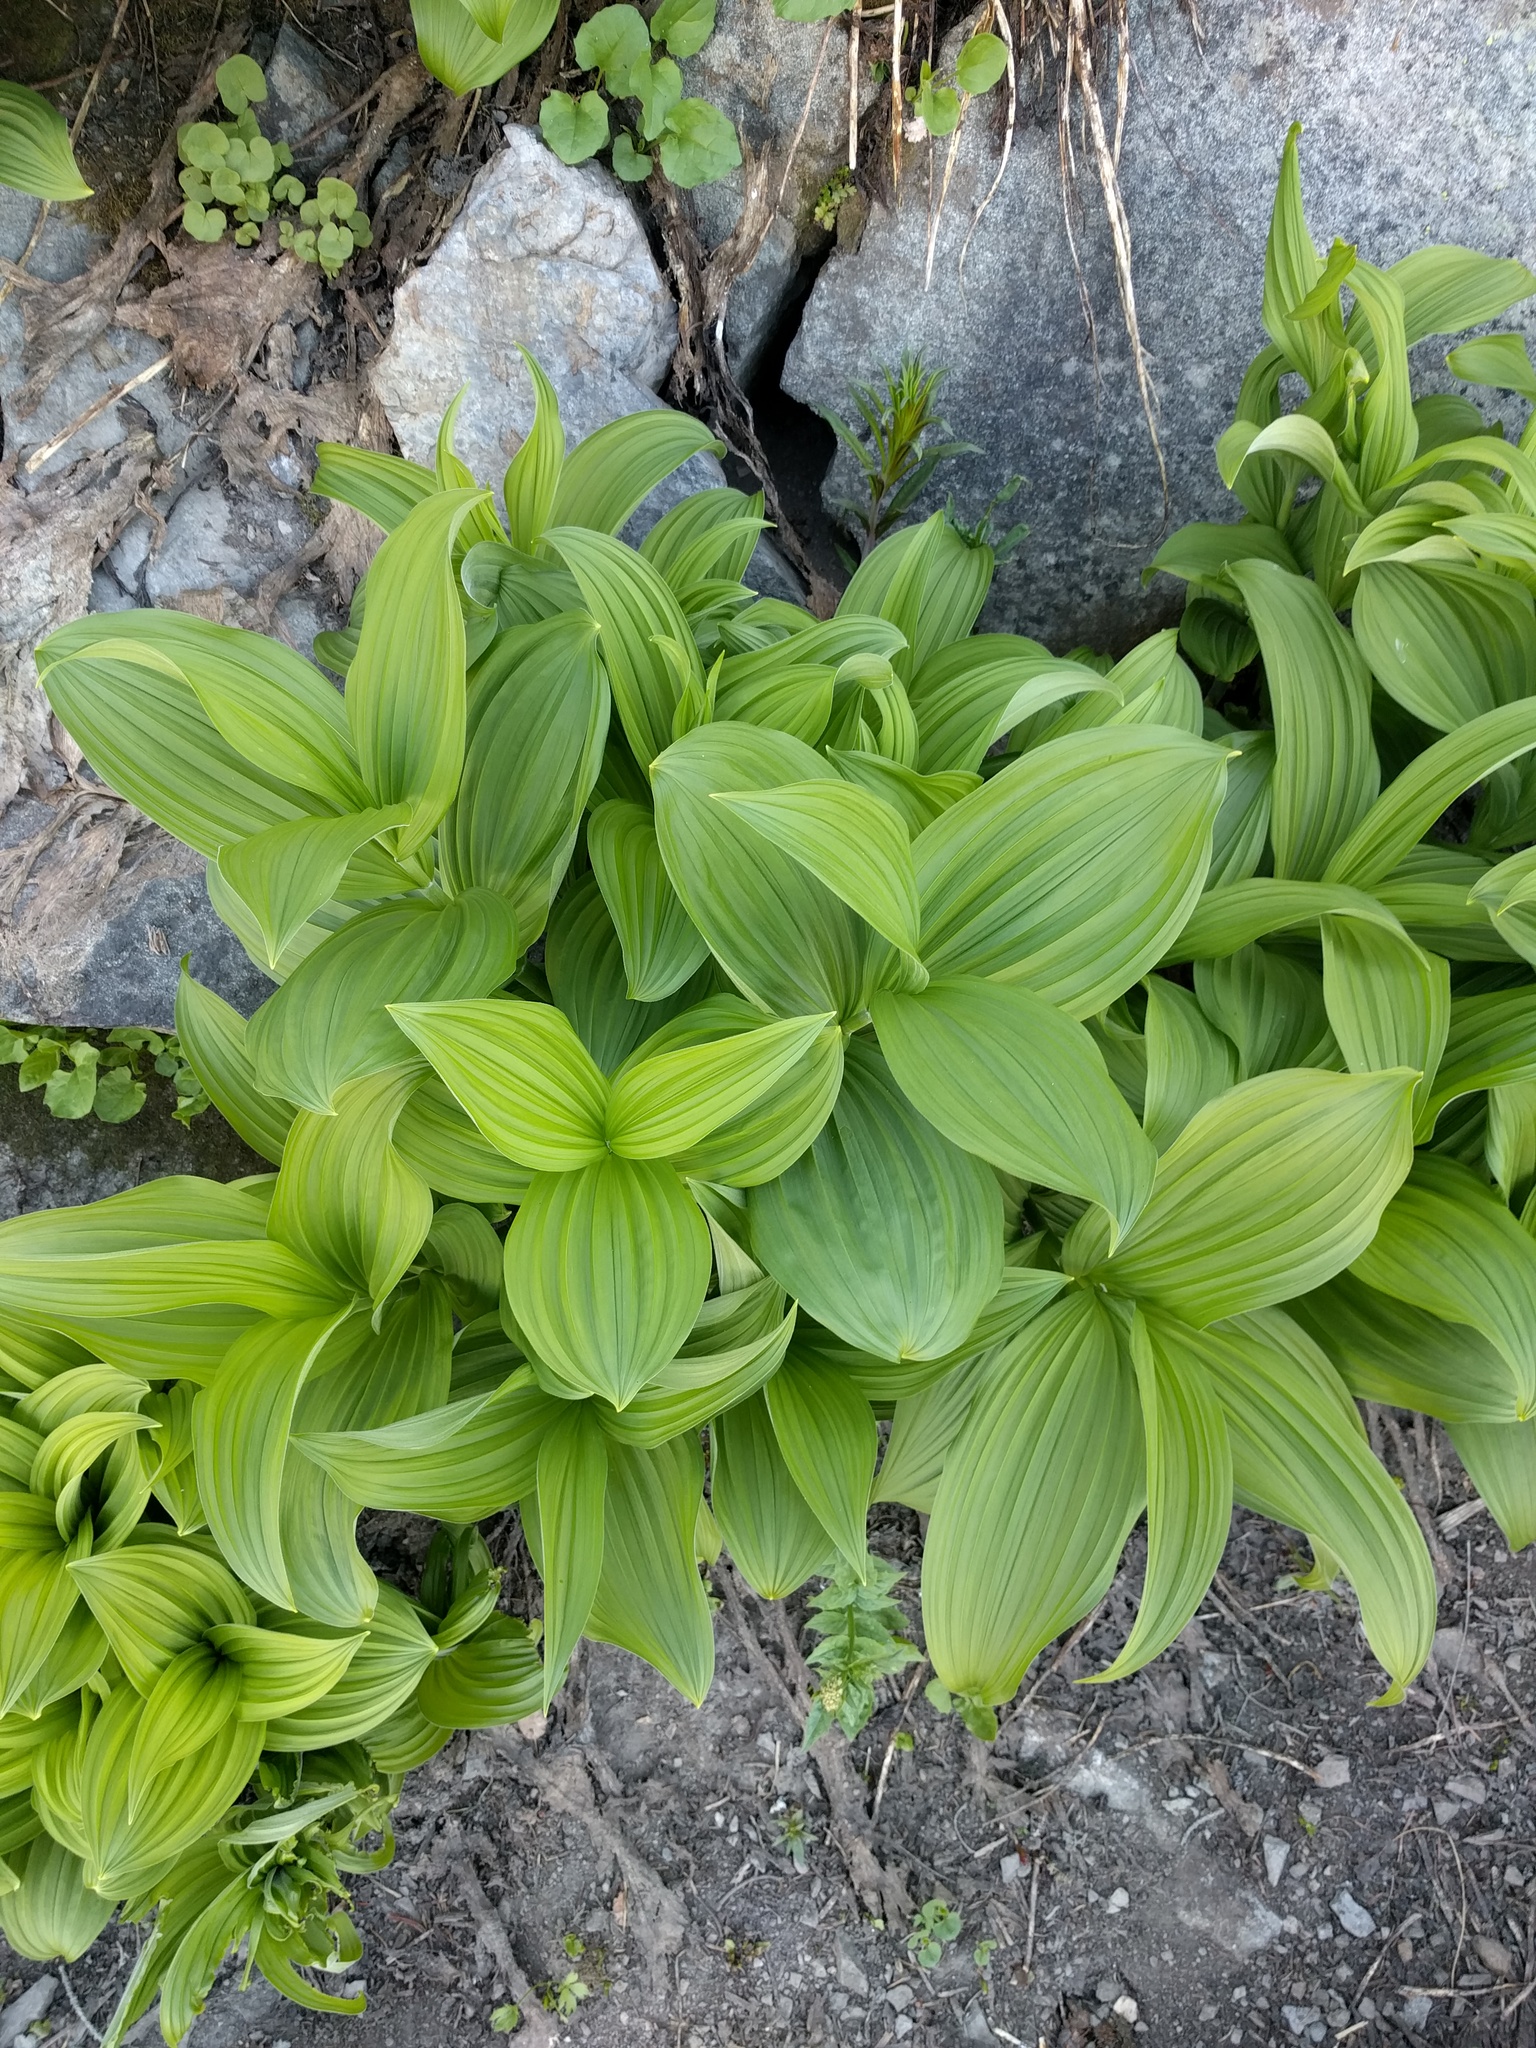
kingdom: Plantae
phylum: Tracheophyta
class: Liliopsida
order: Liliales
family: Melanthiaceae
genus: Veratrum
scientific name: Veratrum viride
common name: American false hellebore
